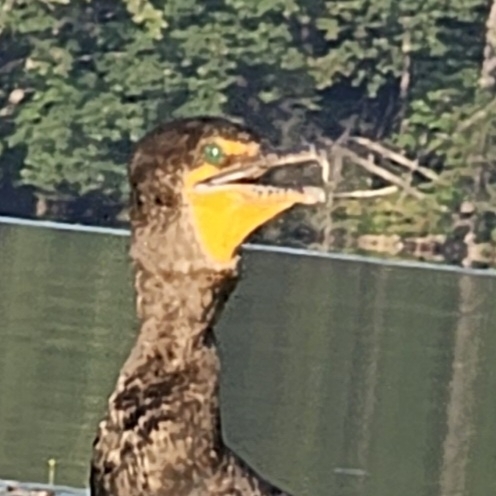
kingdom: Animalia
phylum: Chordata
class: Aves
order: Suliformes
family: Phalacrocoracidae
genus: Phalacrocorax
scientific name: Phalacrocorax auritus
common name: Double-crested cormorant
